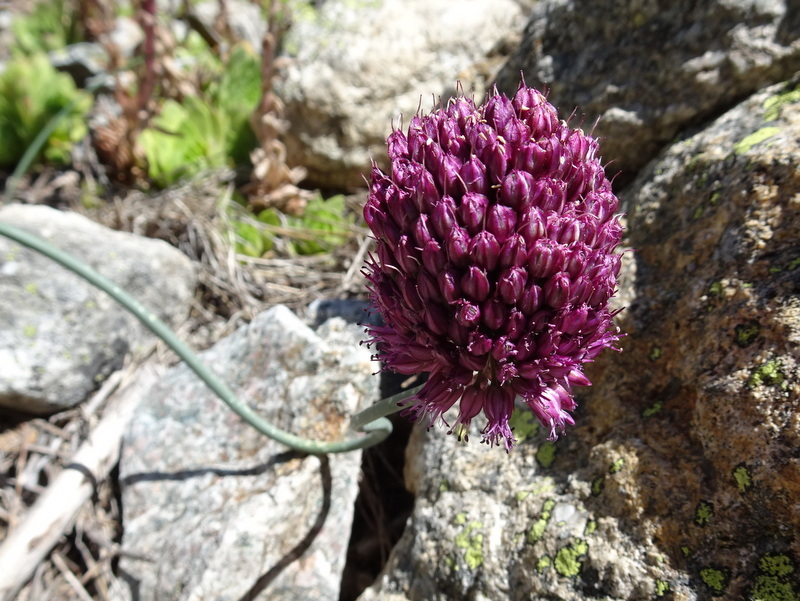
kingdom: Plantae
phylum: Tracheophyta
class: Liliopsida
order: Asparagales
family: Amaryllidaceae
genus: Allium
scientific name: Allium sphaerocephalon
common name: Round-headed leek
